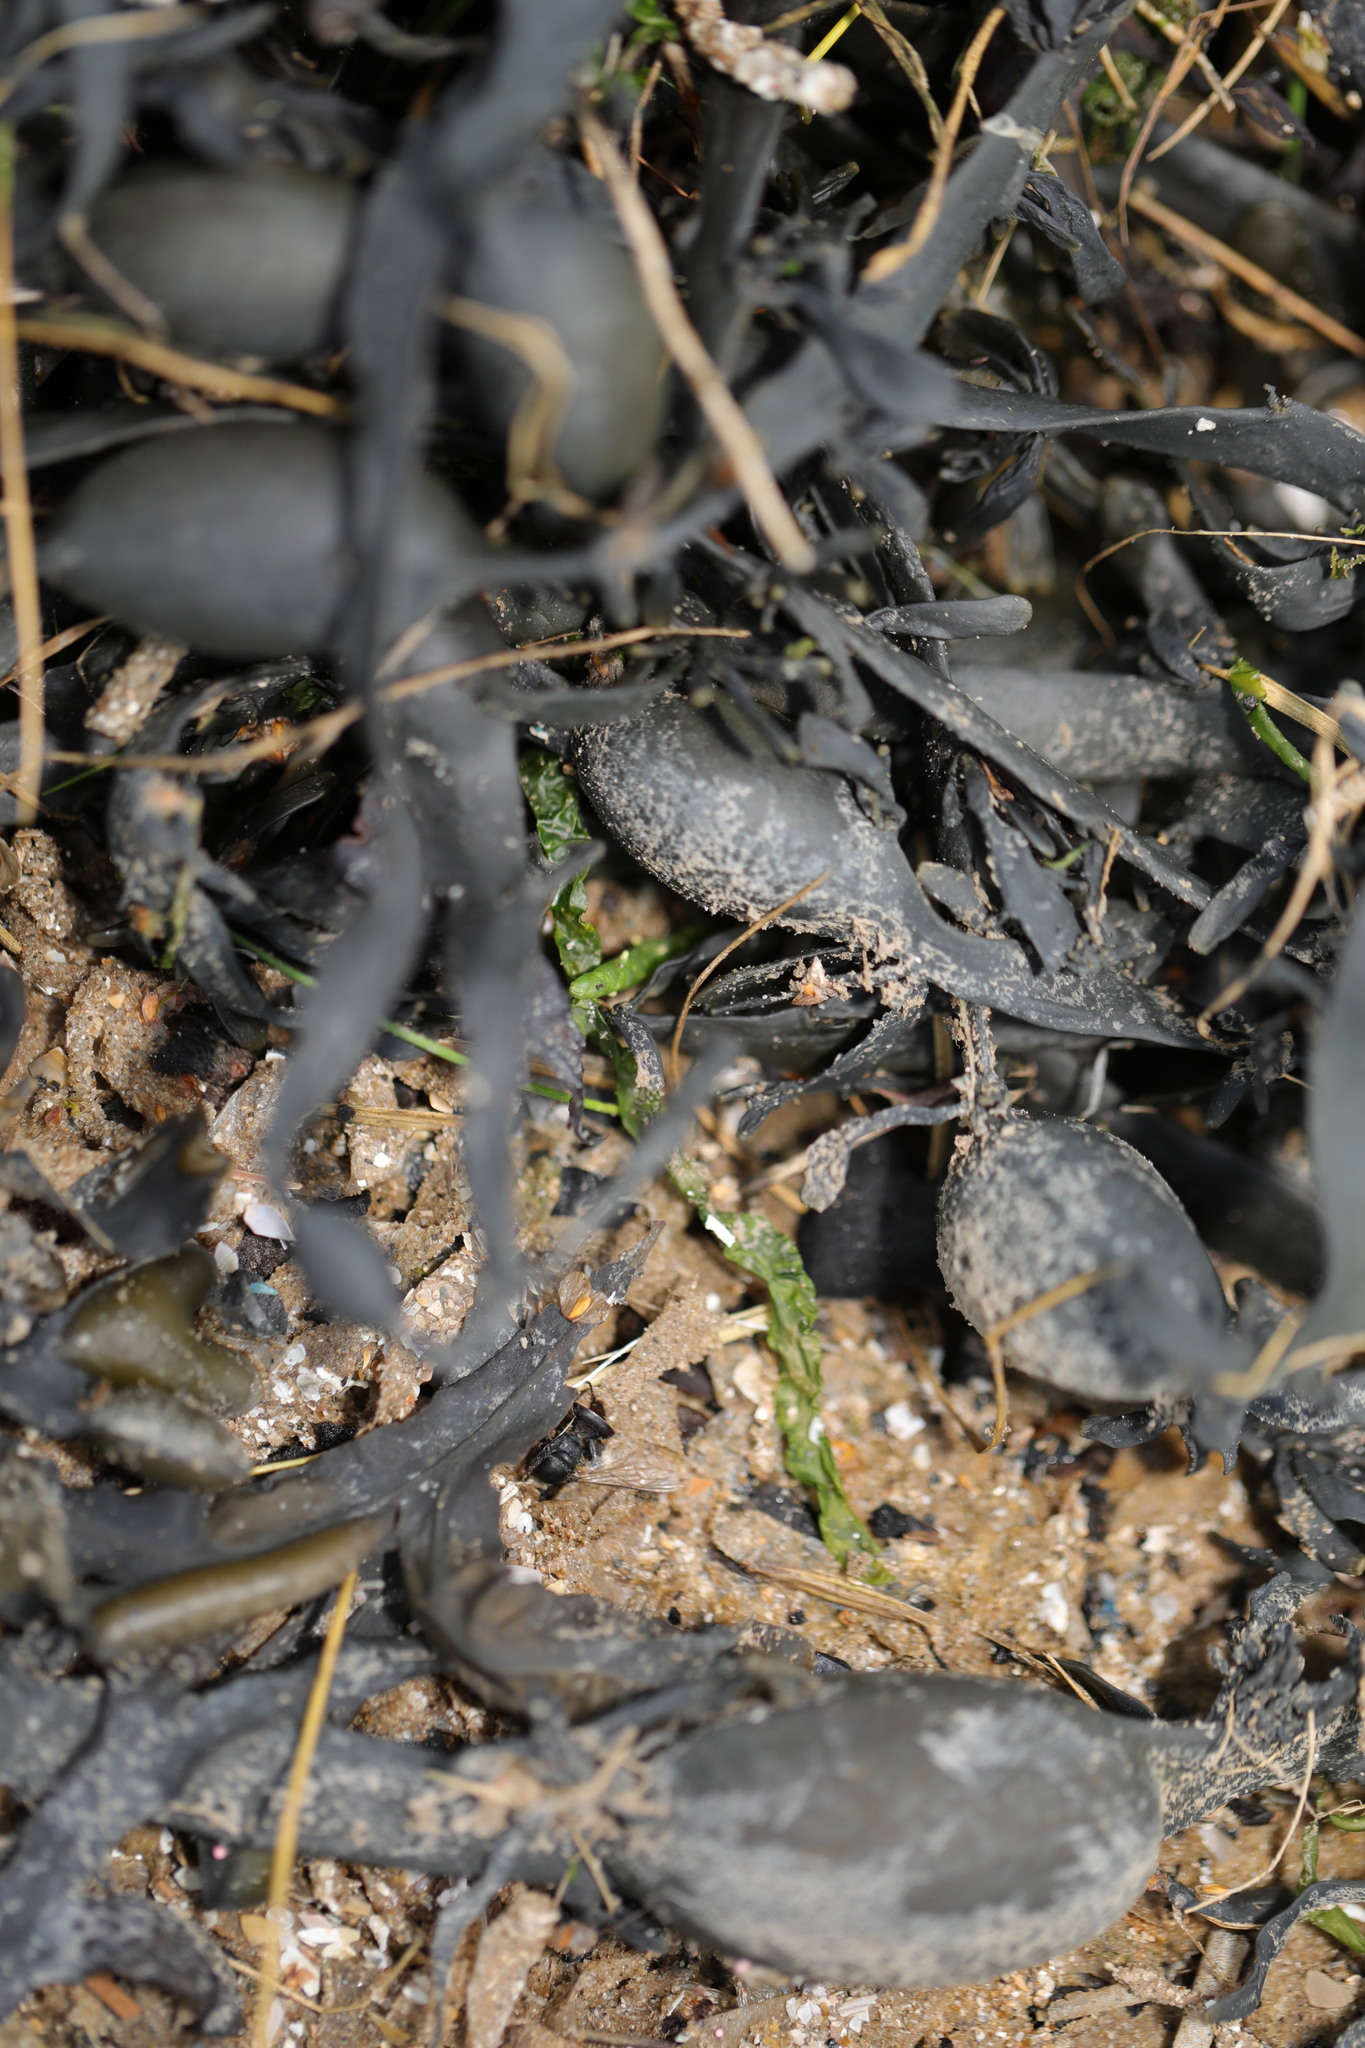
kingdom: Chromista
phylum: Ochrophyta
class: Phaeophyceae
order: Fucales
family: Fucaceae
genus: Ascophyllum
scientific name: Ascophyllum nodosum
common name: Knotted wrack
